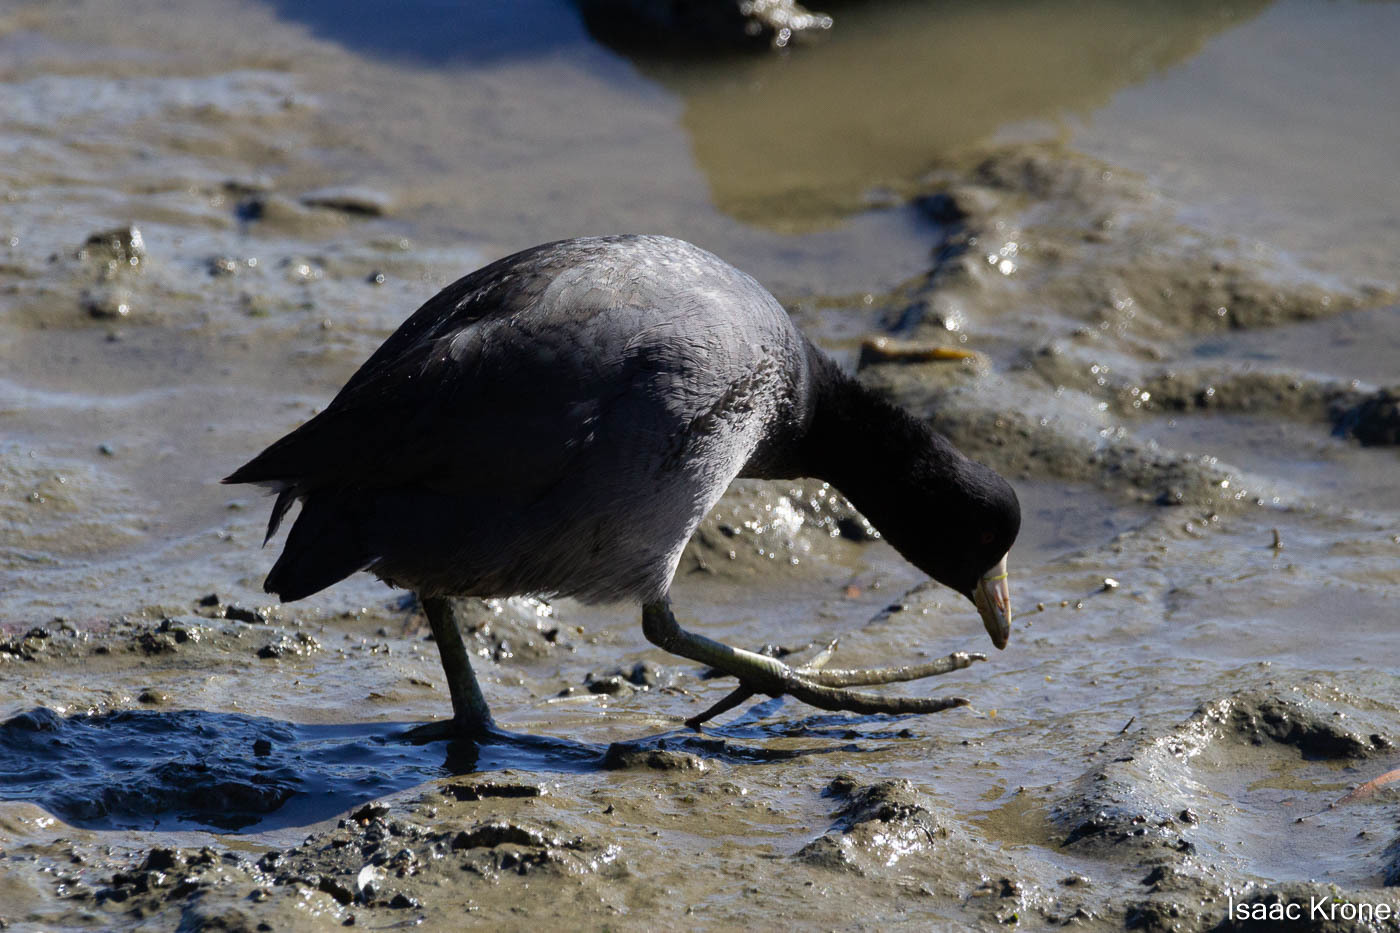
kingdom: Animalia
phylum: Chordata
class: Aves
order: Gruiformes
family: Rallidae
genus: Fulica
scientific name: Fulica americana
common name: American coot
